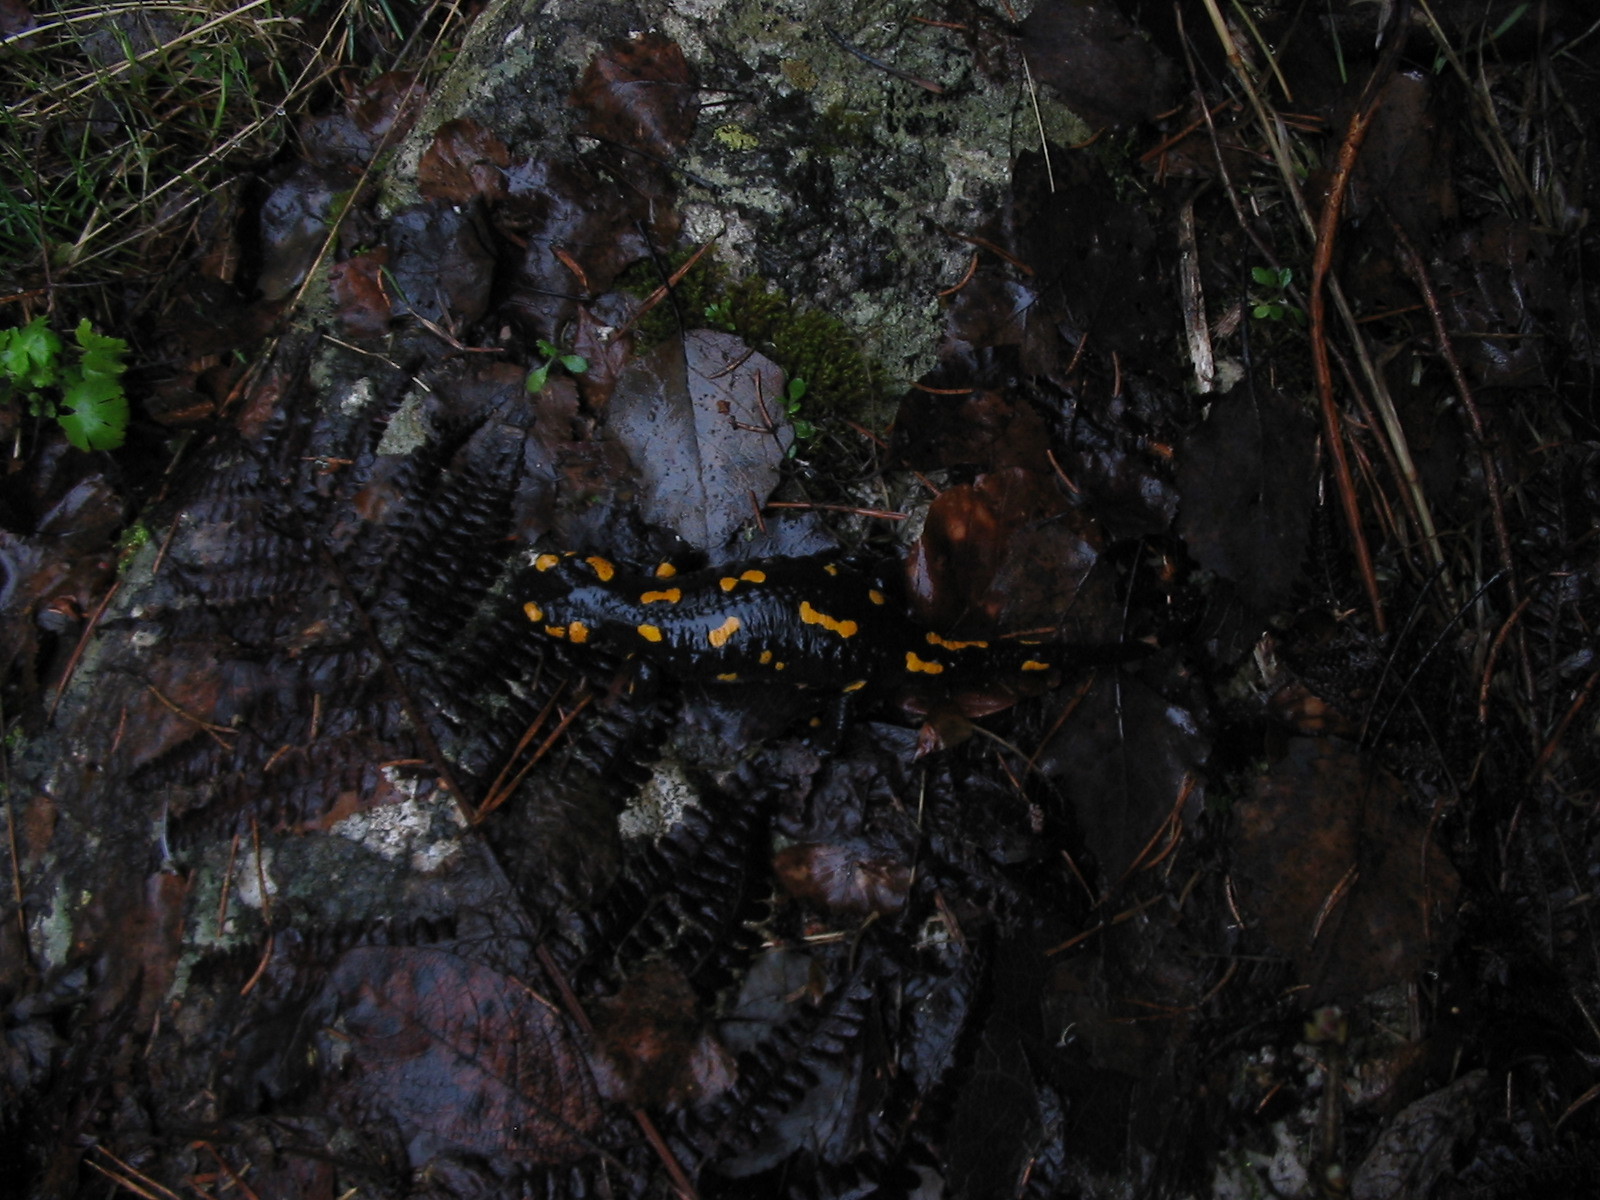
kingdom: Animalia
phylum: Chordata
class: Amphibia
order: Caudata
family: Salamandridae
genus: Salamandra
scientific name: Salamandra salamandra
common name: Fire salamander
